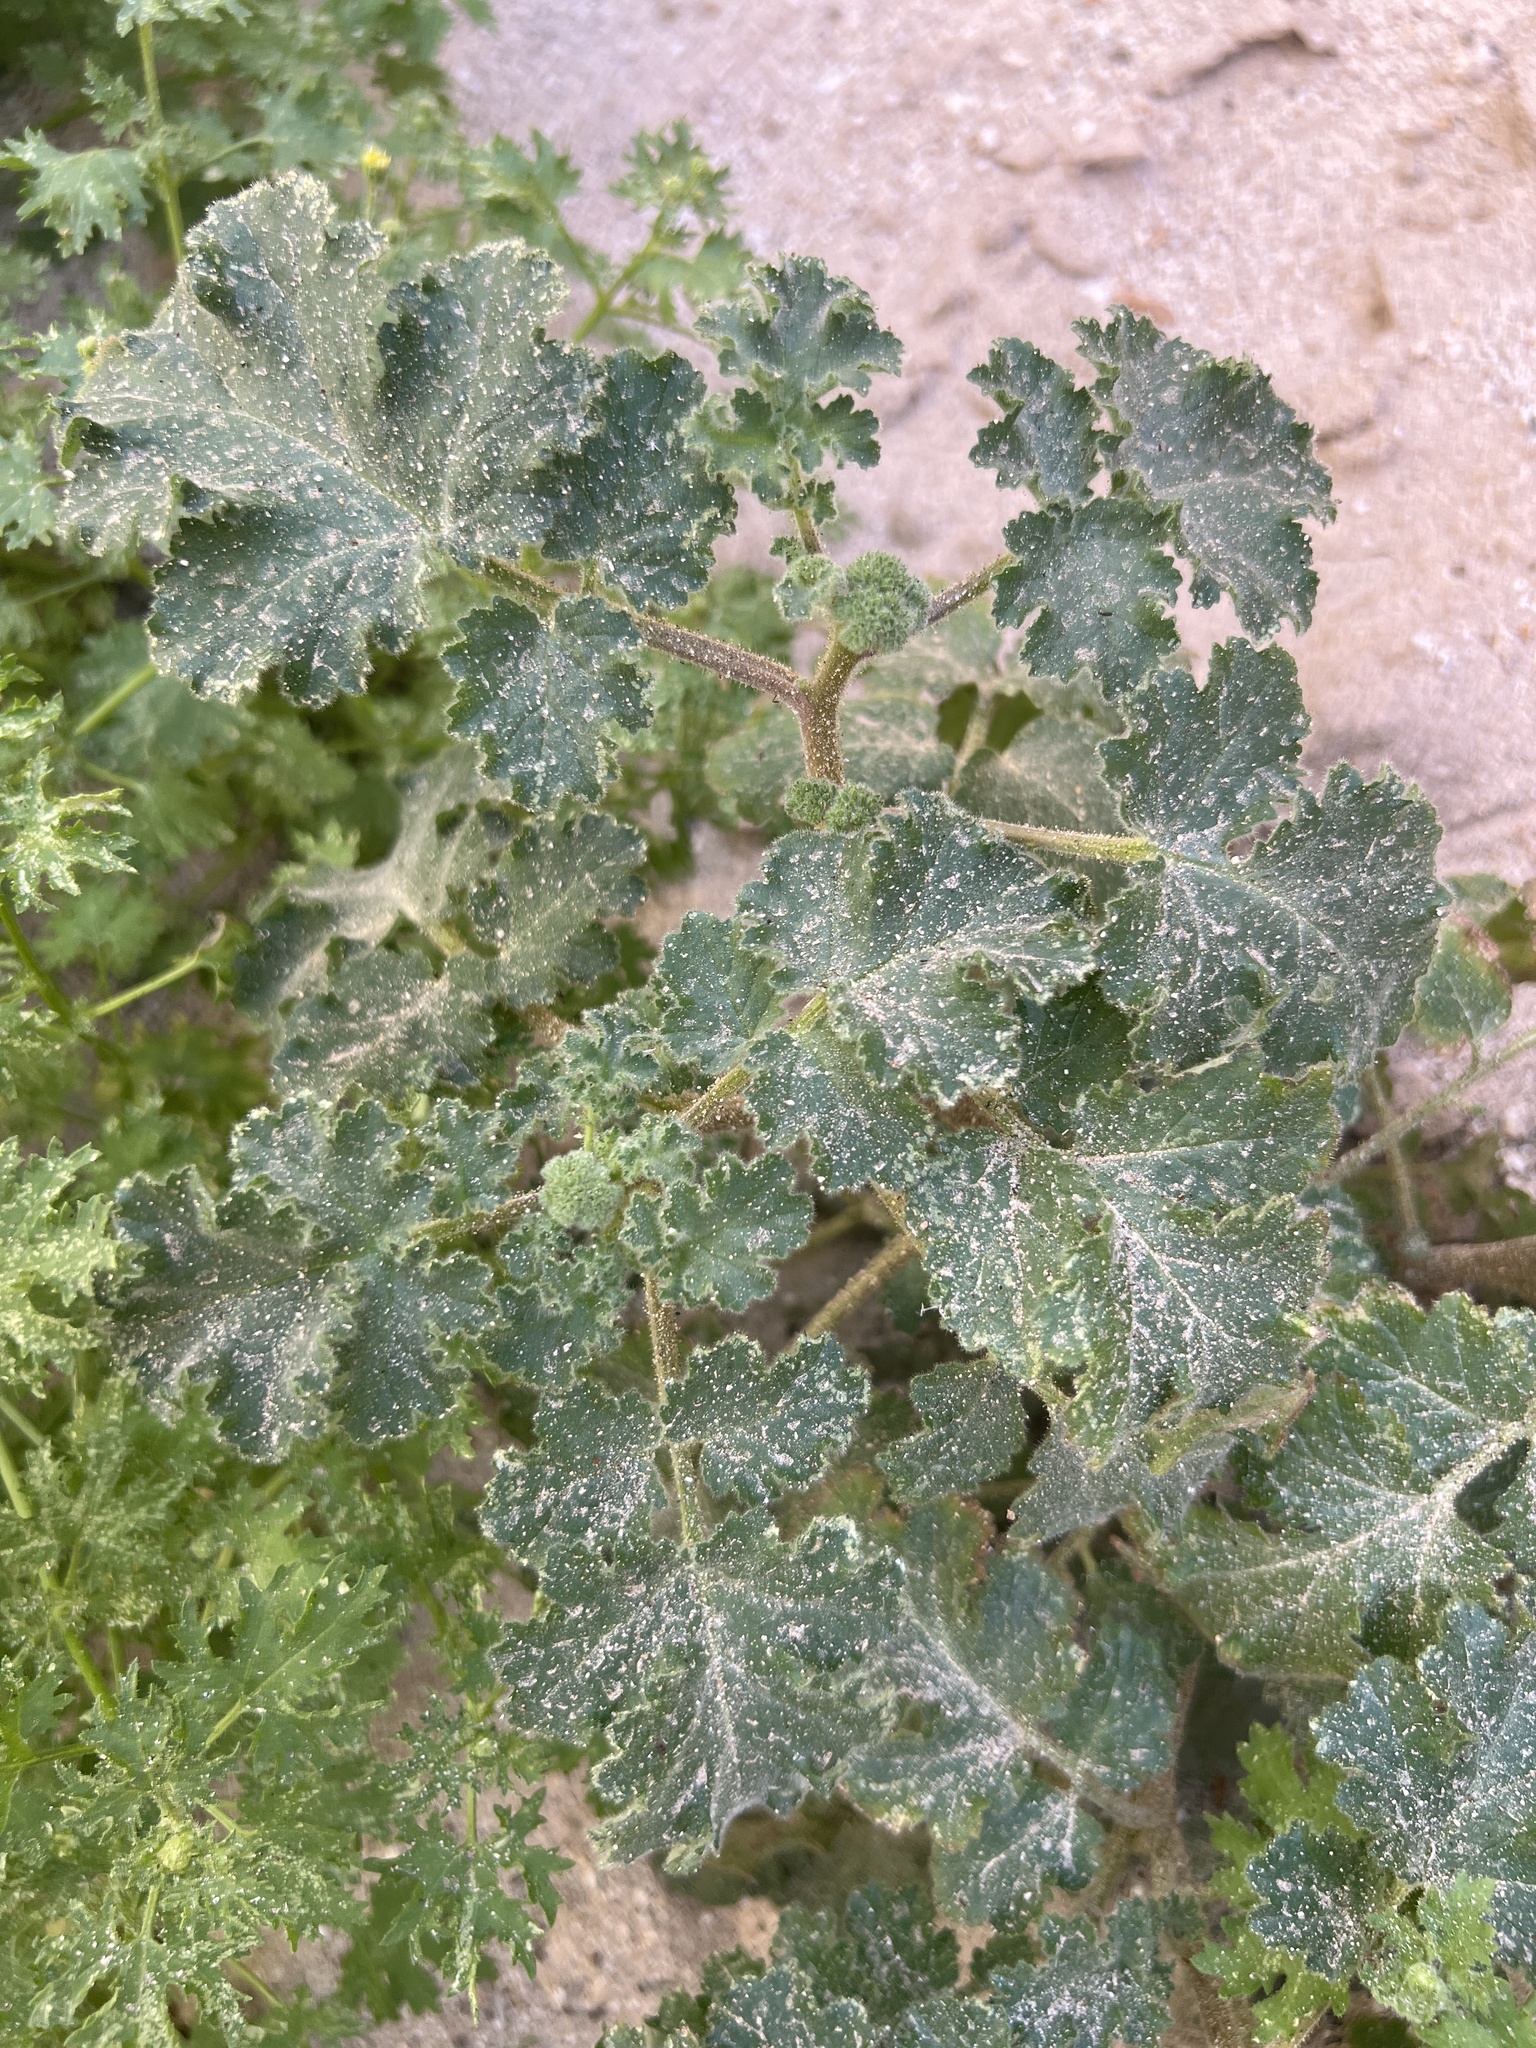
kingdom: Plantae
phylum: Tracheophyta
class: Magnoliopsida
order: Boraginales
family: Hydrophyllaceae
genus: Phacelia
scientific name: Phacelia pedicellata
